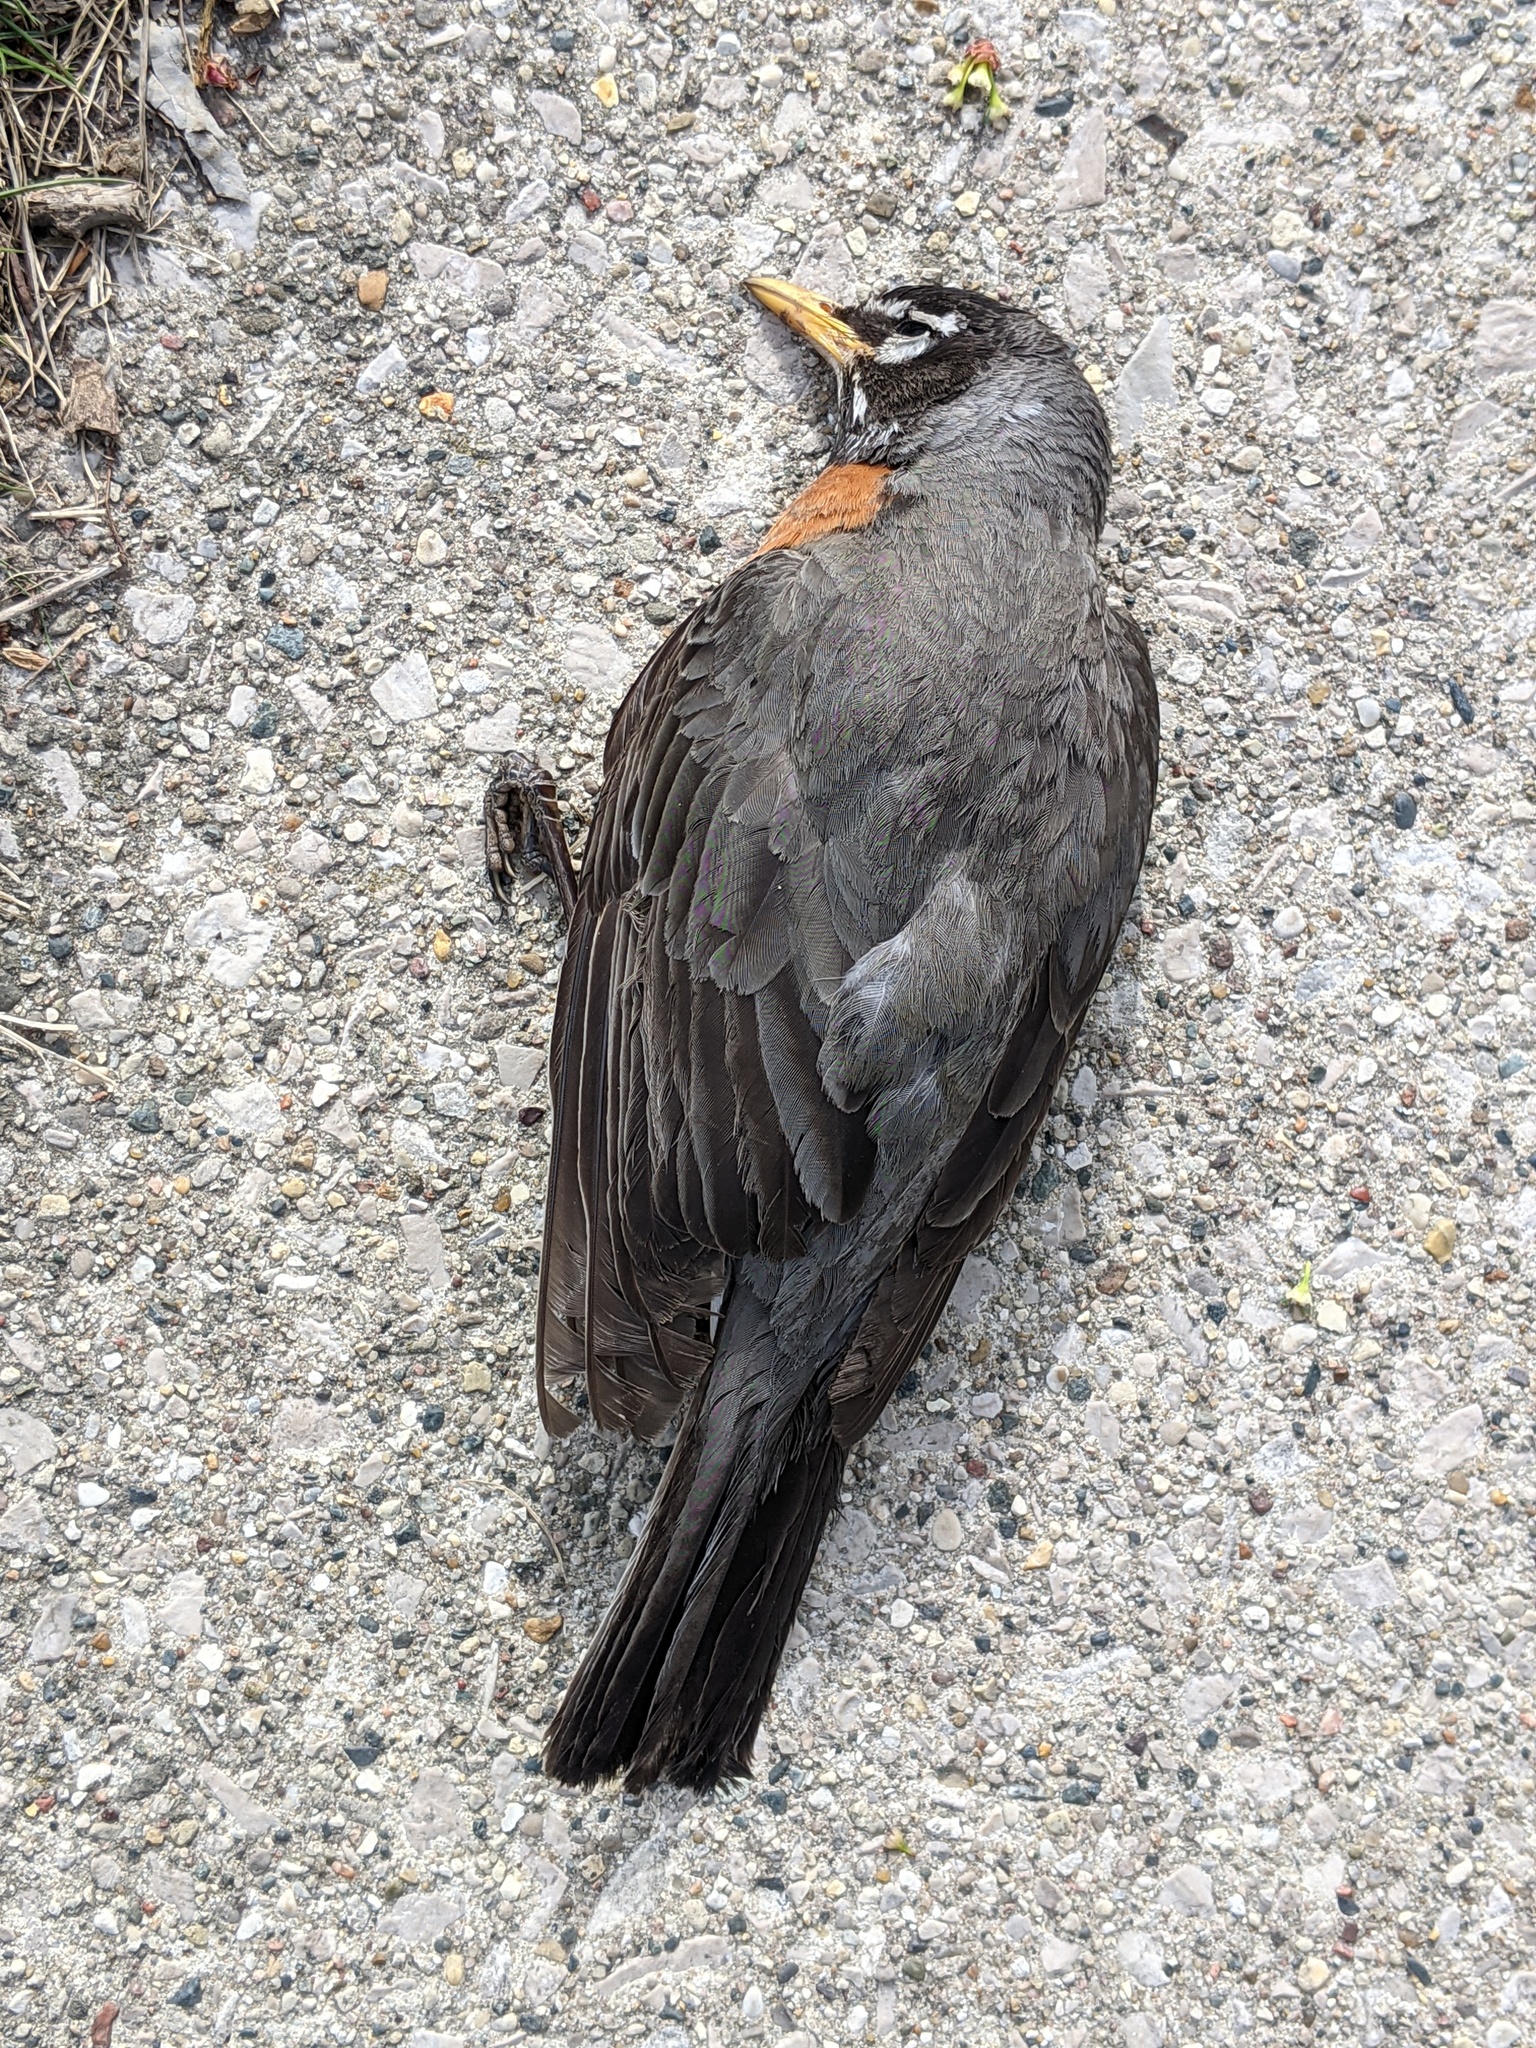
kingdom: Animalia
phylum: Chordata
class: Aves
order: Passeriformes
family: Turdidae
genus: Turdus
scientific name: Turdus migratorius
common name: American robin
